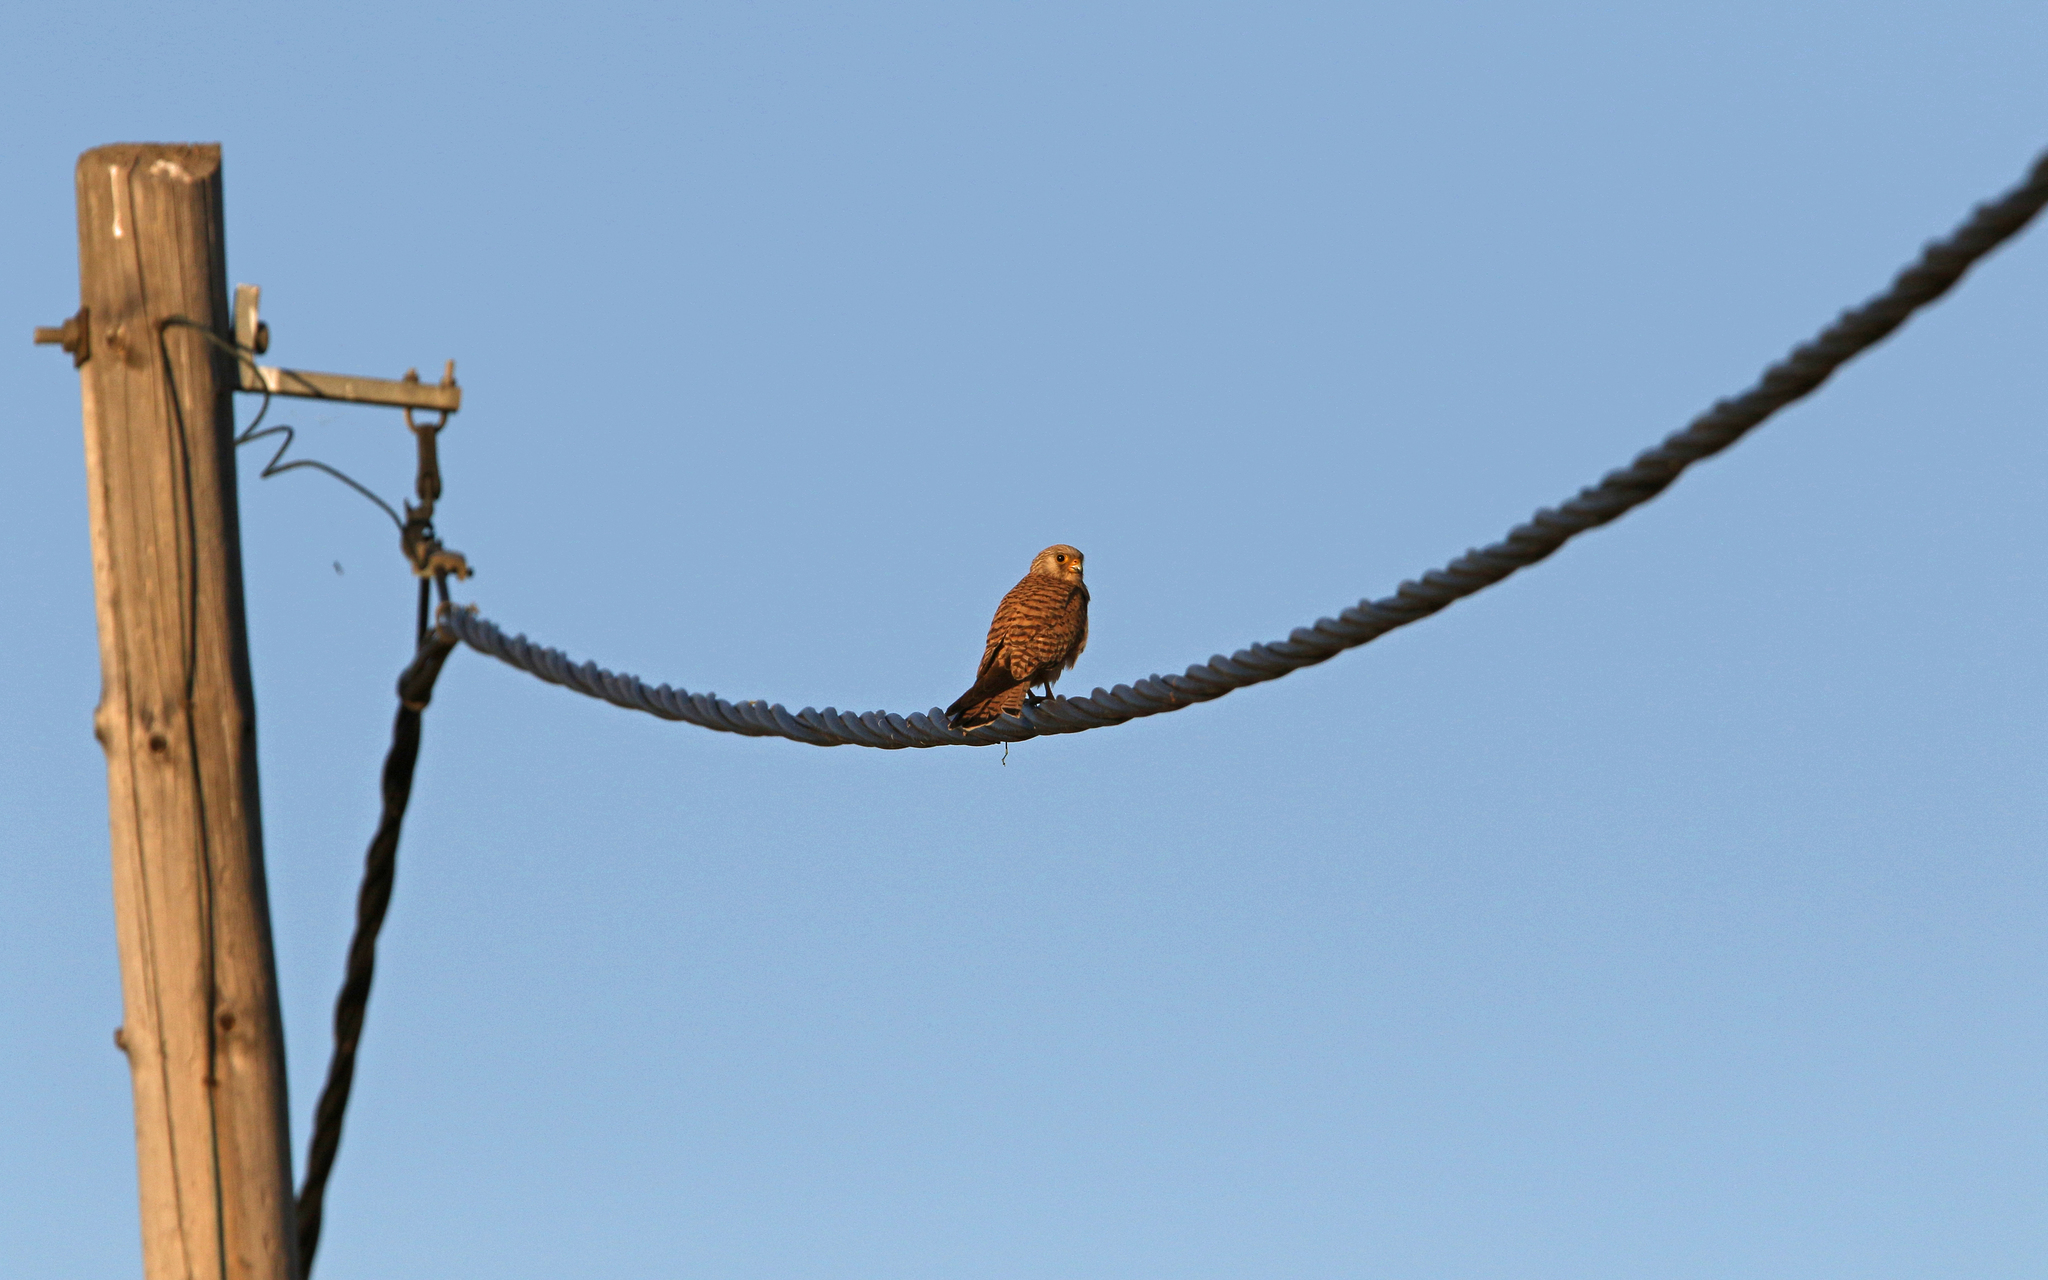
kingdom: Animalia
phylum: Chordata
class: Aves
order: Falconiformes
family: Falconidae
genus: Falco
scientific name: Falco naumanni
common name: Lesser kestrel
